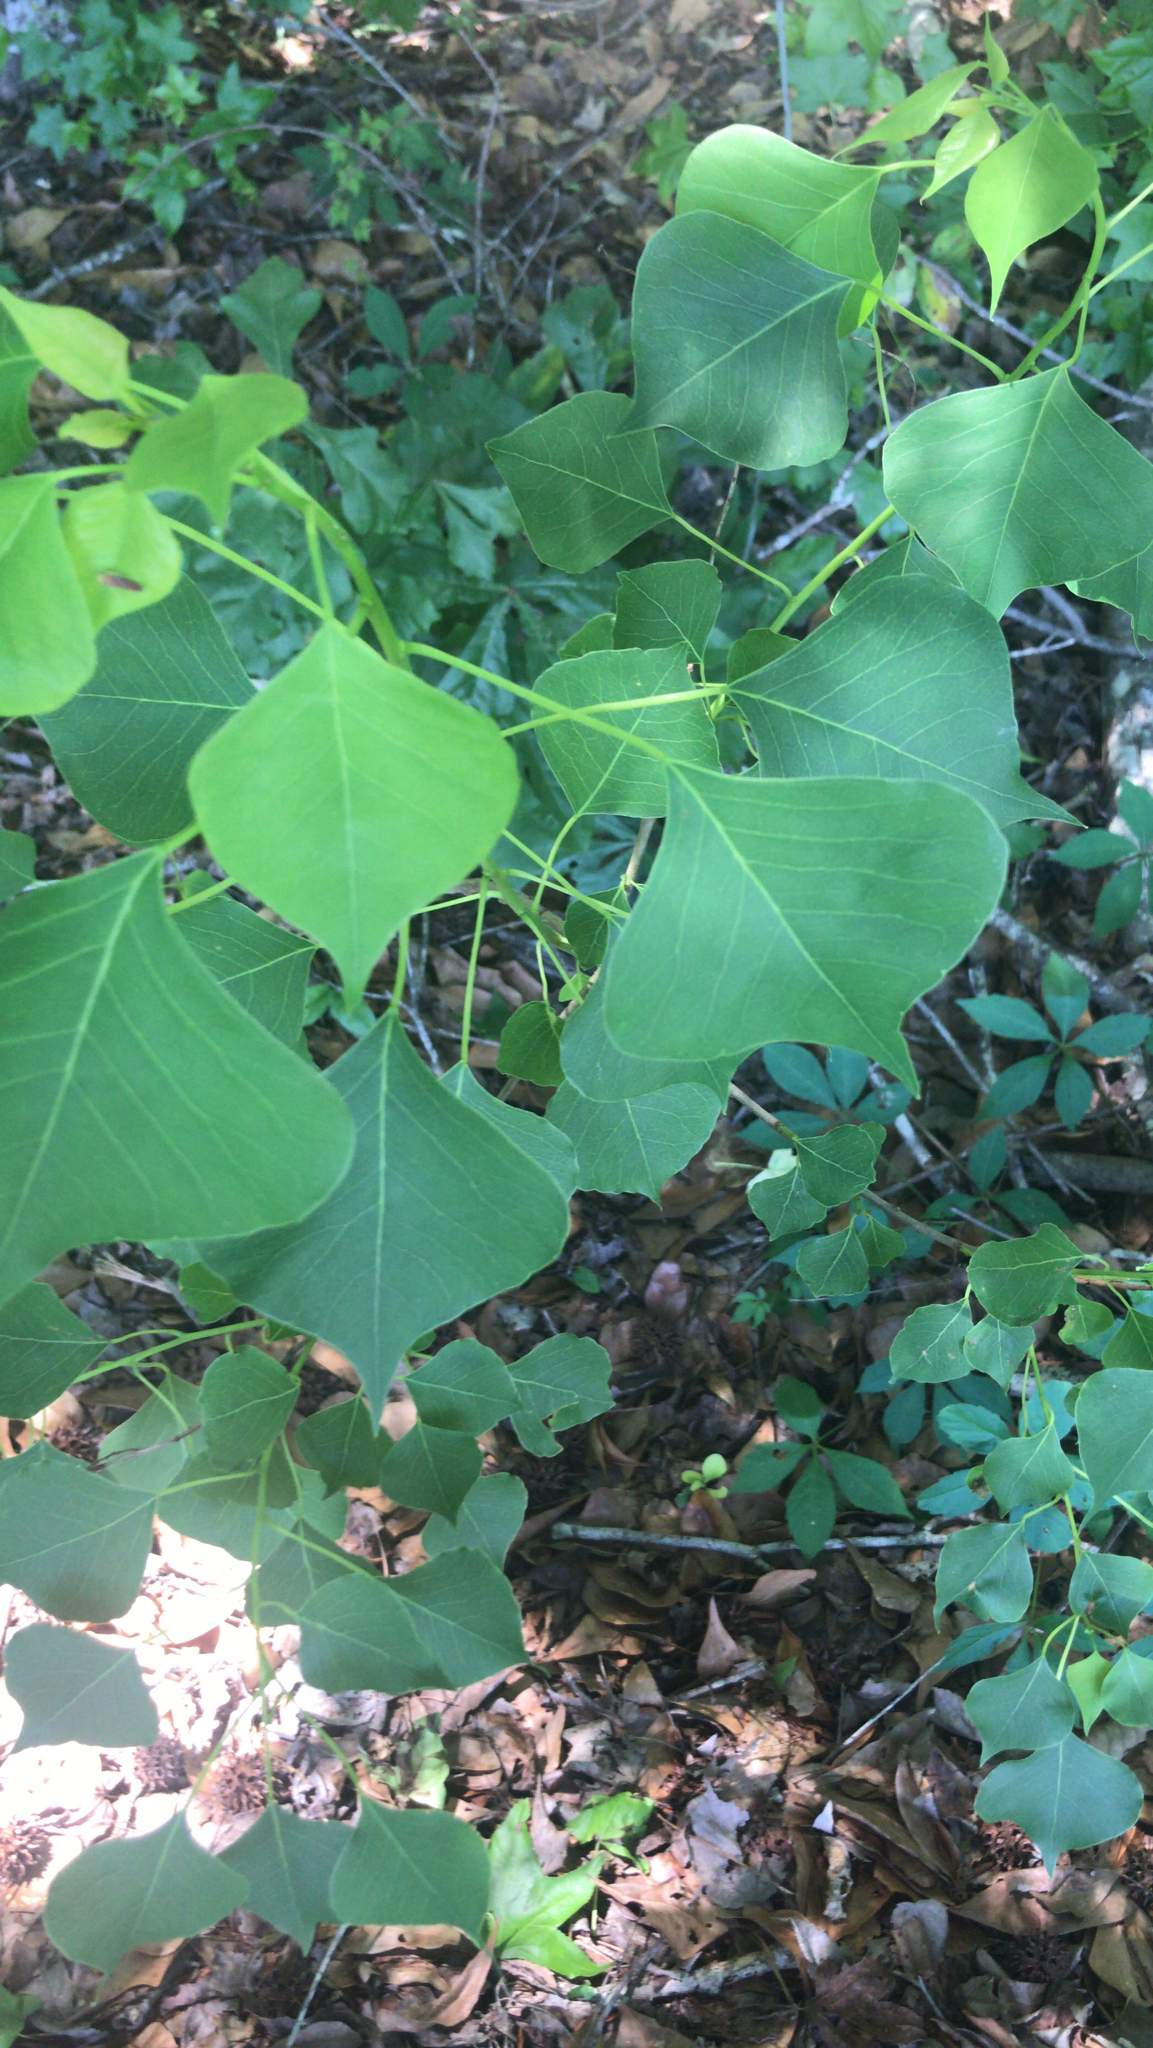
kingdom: Plantae
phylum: Tracheophyta
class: Magnoliopsida
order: Malpighiales
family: Euphorbiaceae
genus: Triadica
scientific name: Triadica sebifera
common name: Chinese tallow
